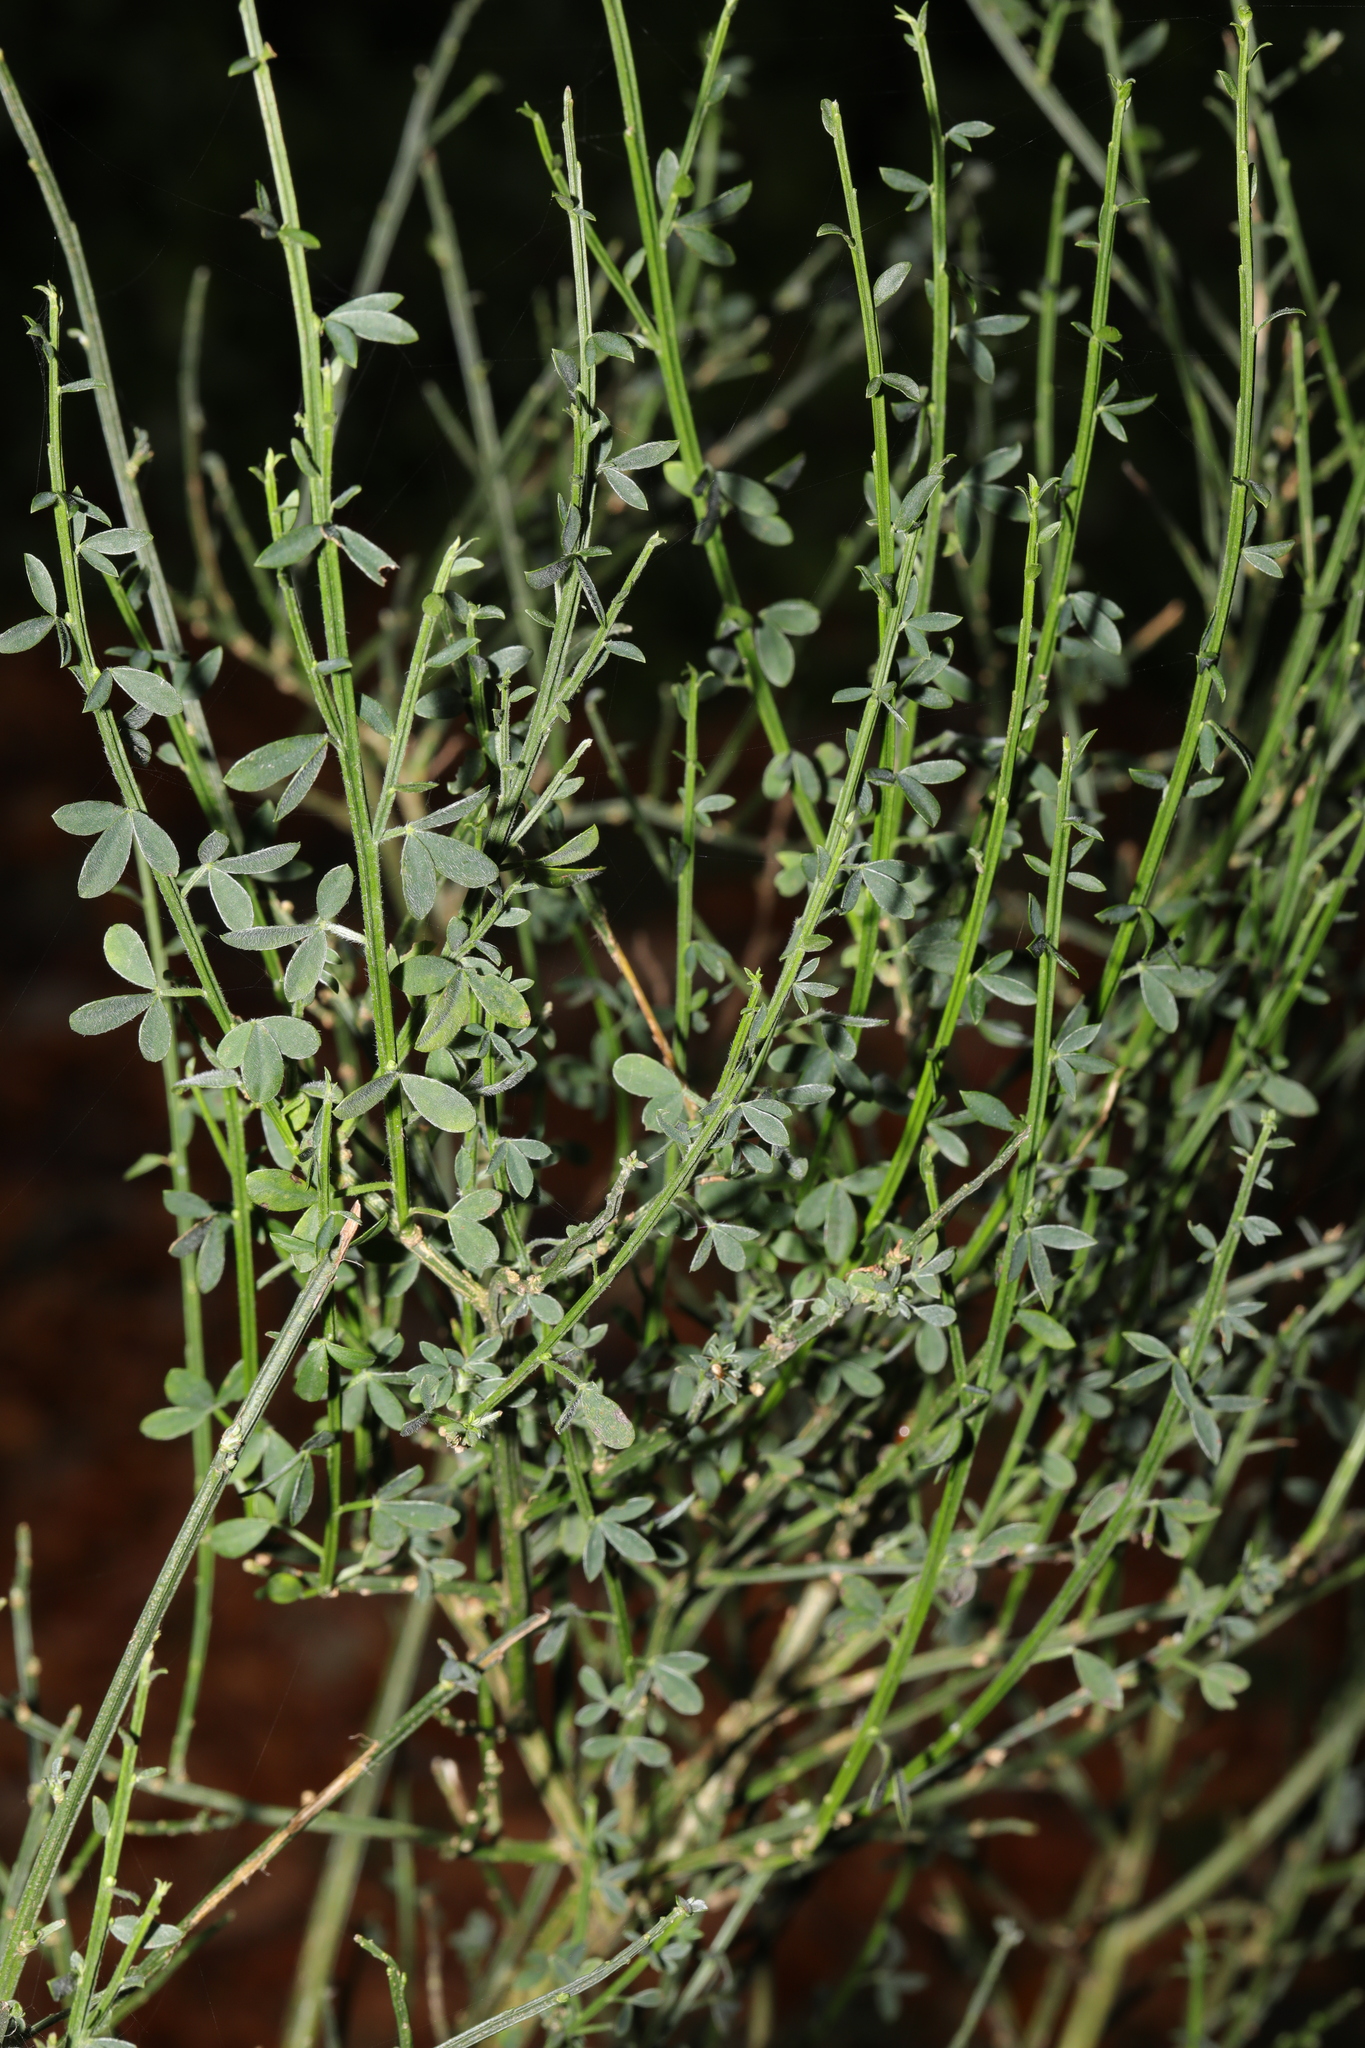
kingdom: Plantae
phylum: Tracheophyta
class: Magnoliopsida
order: Fabales
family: Fabaceae
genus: Cytisus
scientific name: Cytisus scoparius
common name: Scotch broom
